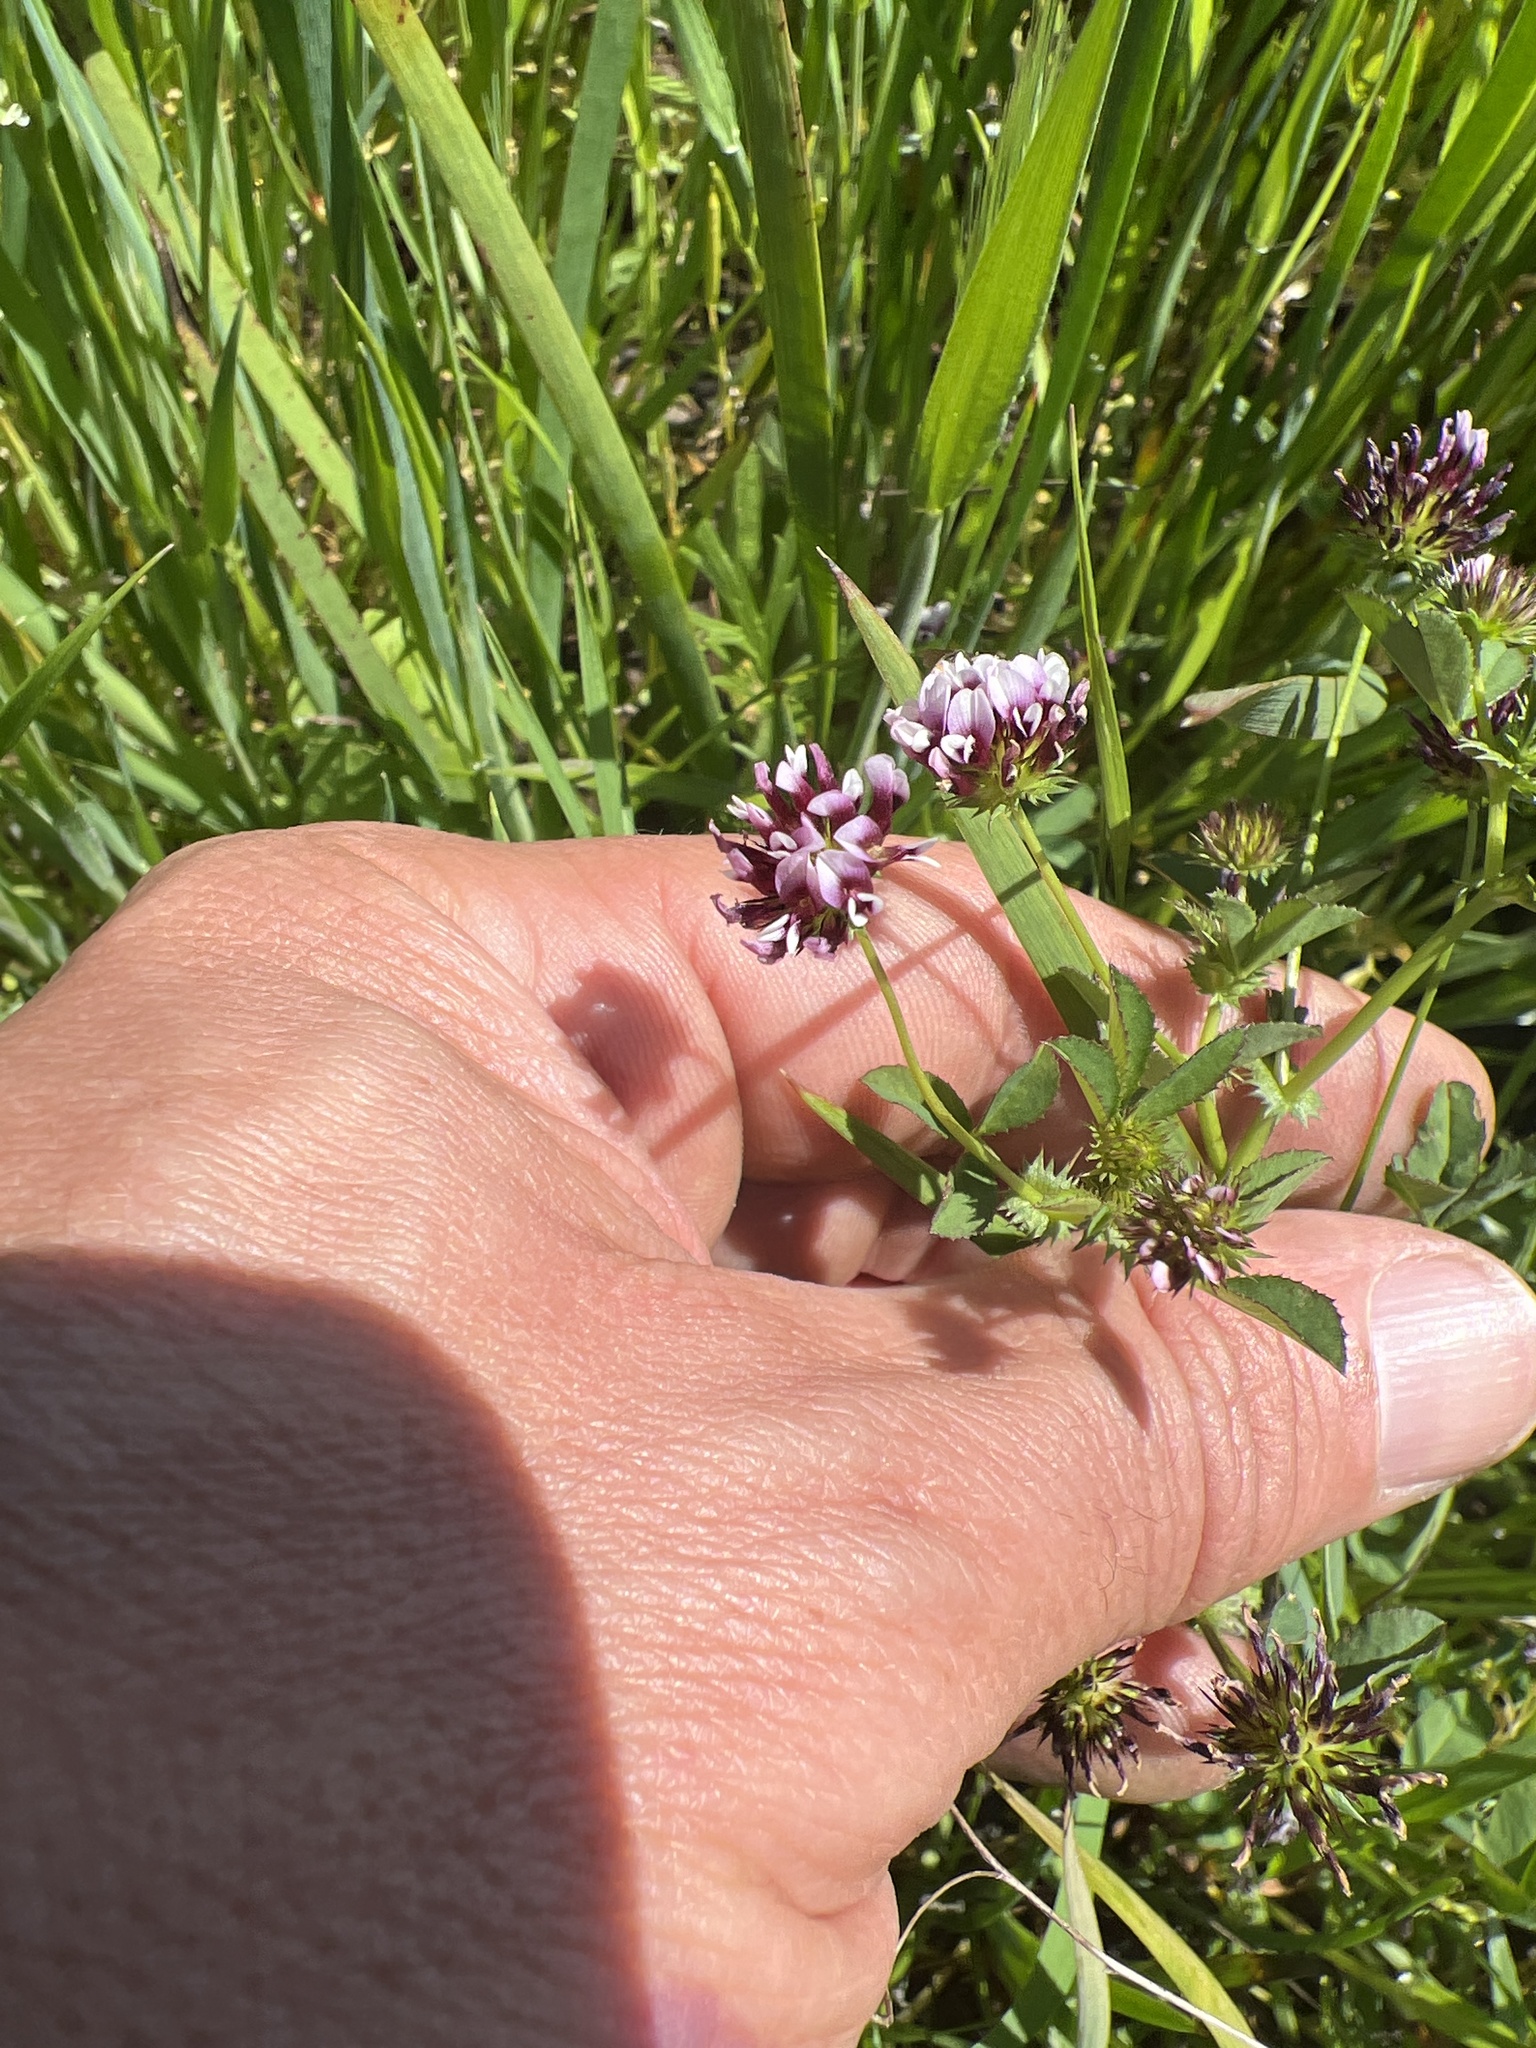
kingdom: Plantae
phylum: Tracheophyta
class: Magnoliopsida
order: Fabales
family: Fabaceae
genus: Trifolium
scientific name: Trifolium variegatum
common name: Whitetip clover
